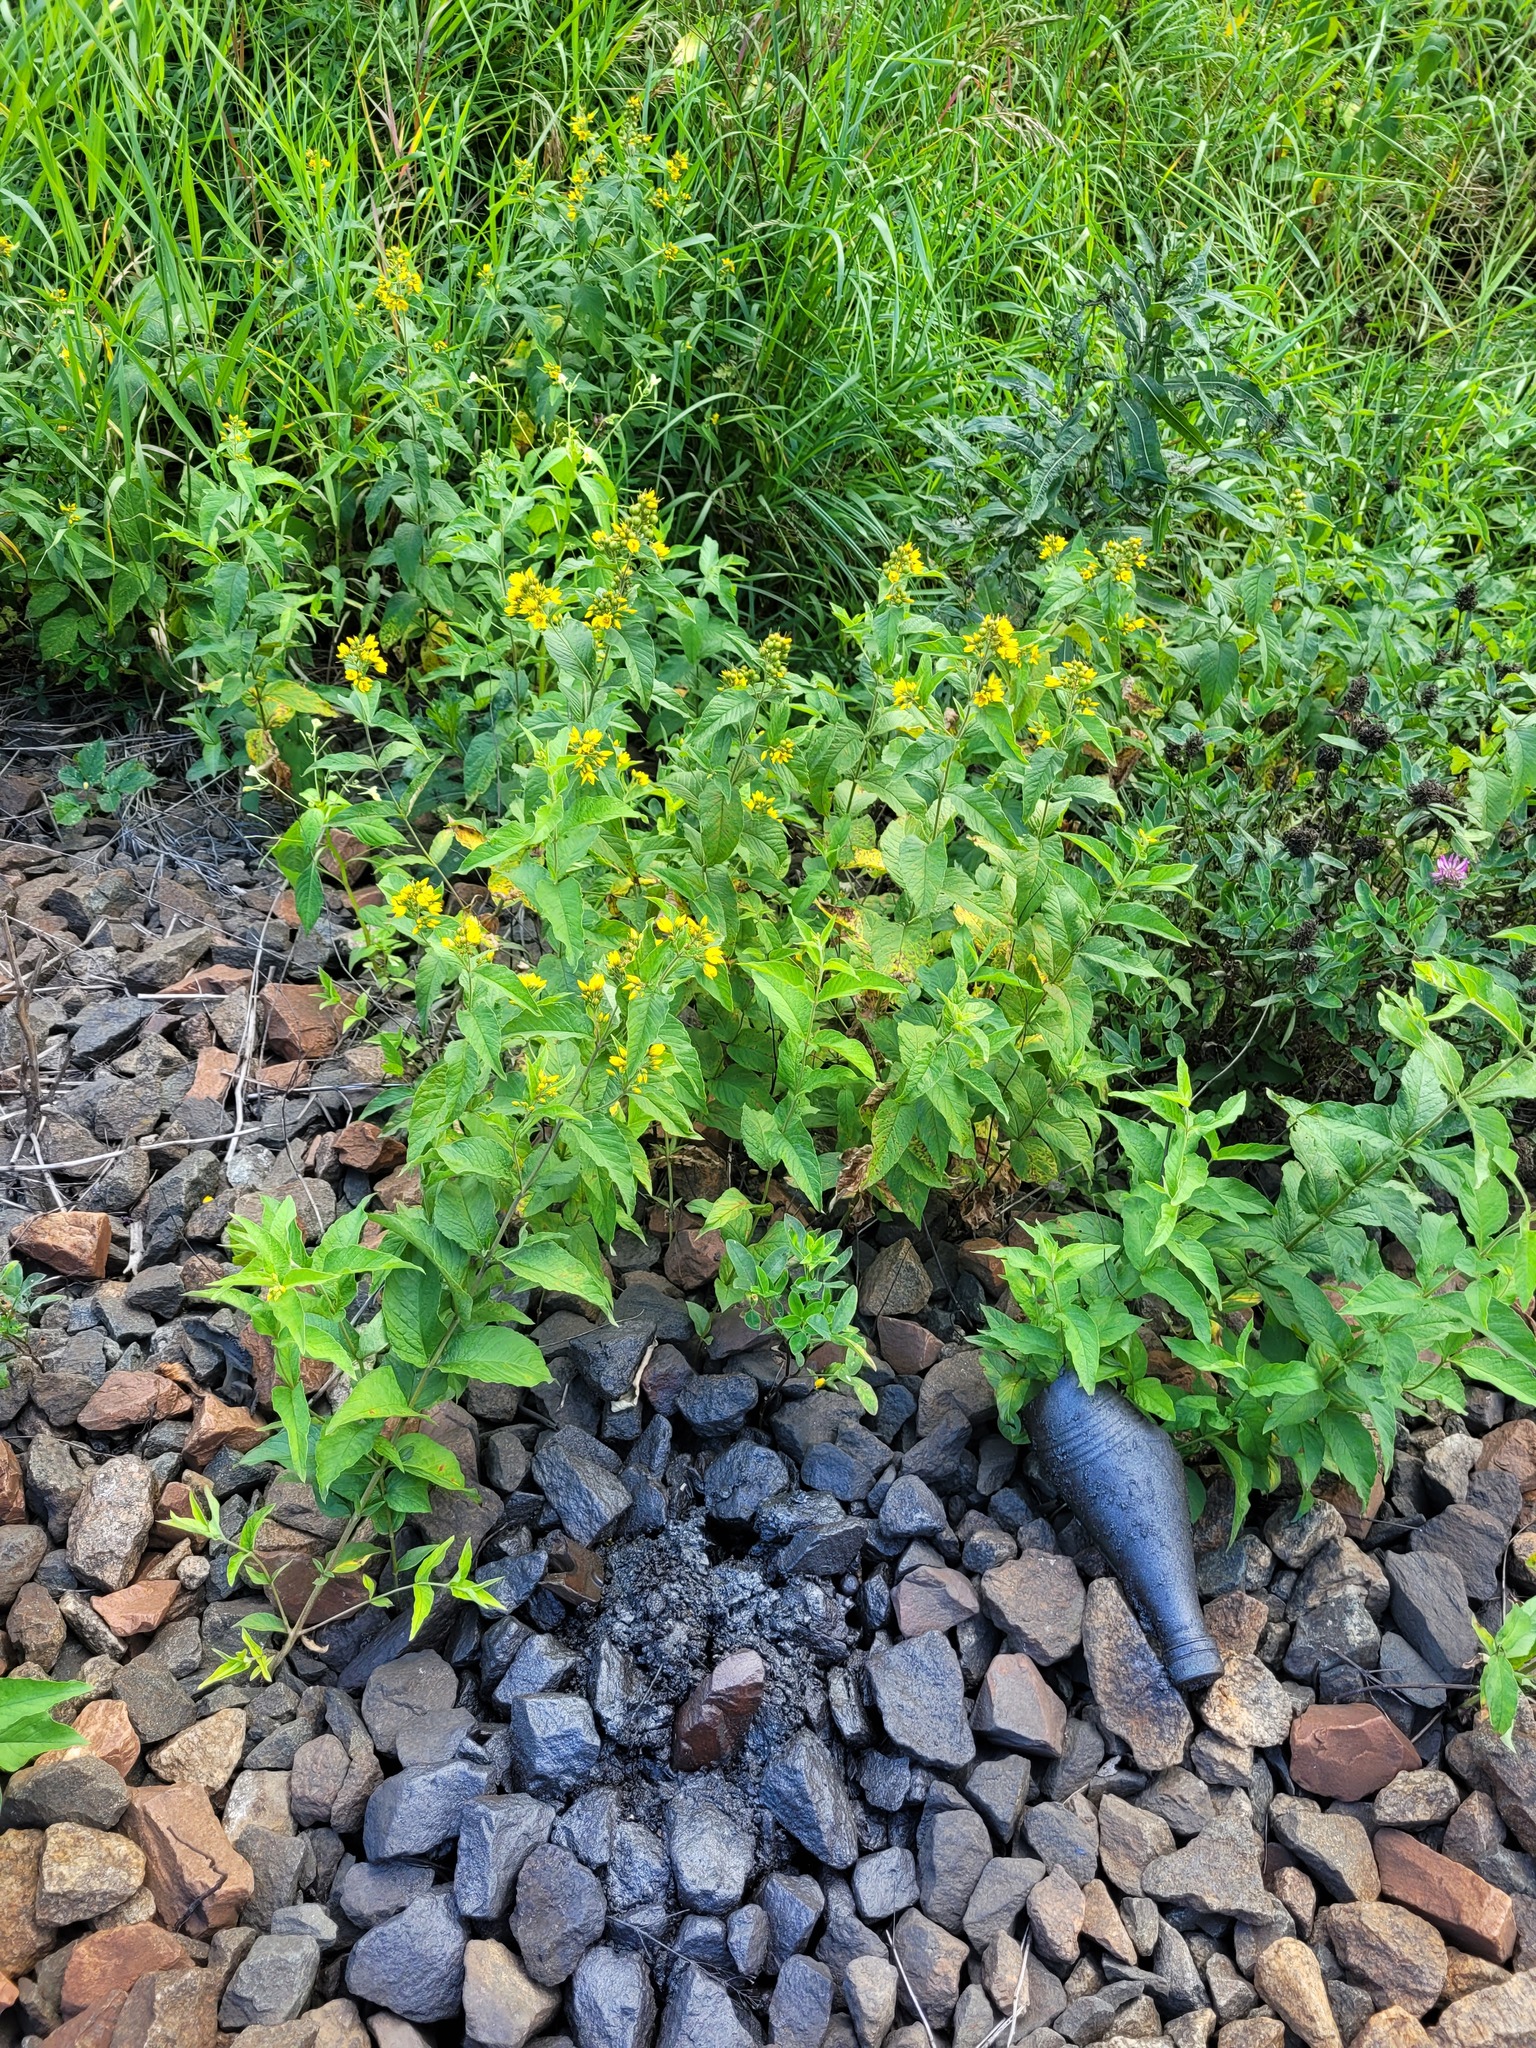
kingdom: Plantae
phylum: Tracheophyta
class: Magnoliopsida
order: Ericales
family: Primulaceae
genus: Lysimachia
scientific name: Lysimachia vulgaris
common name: Yellow loosestrife
